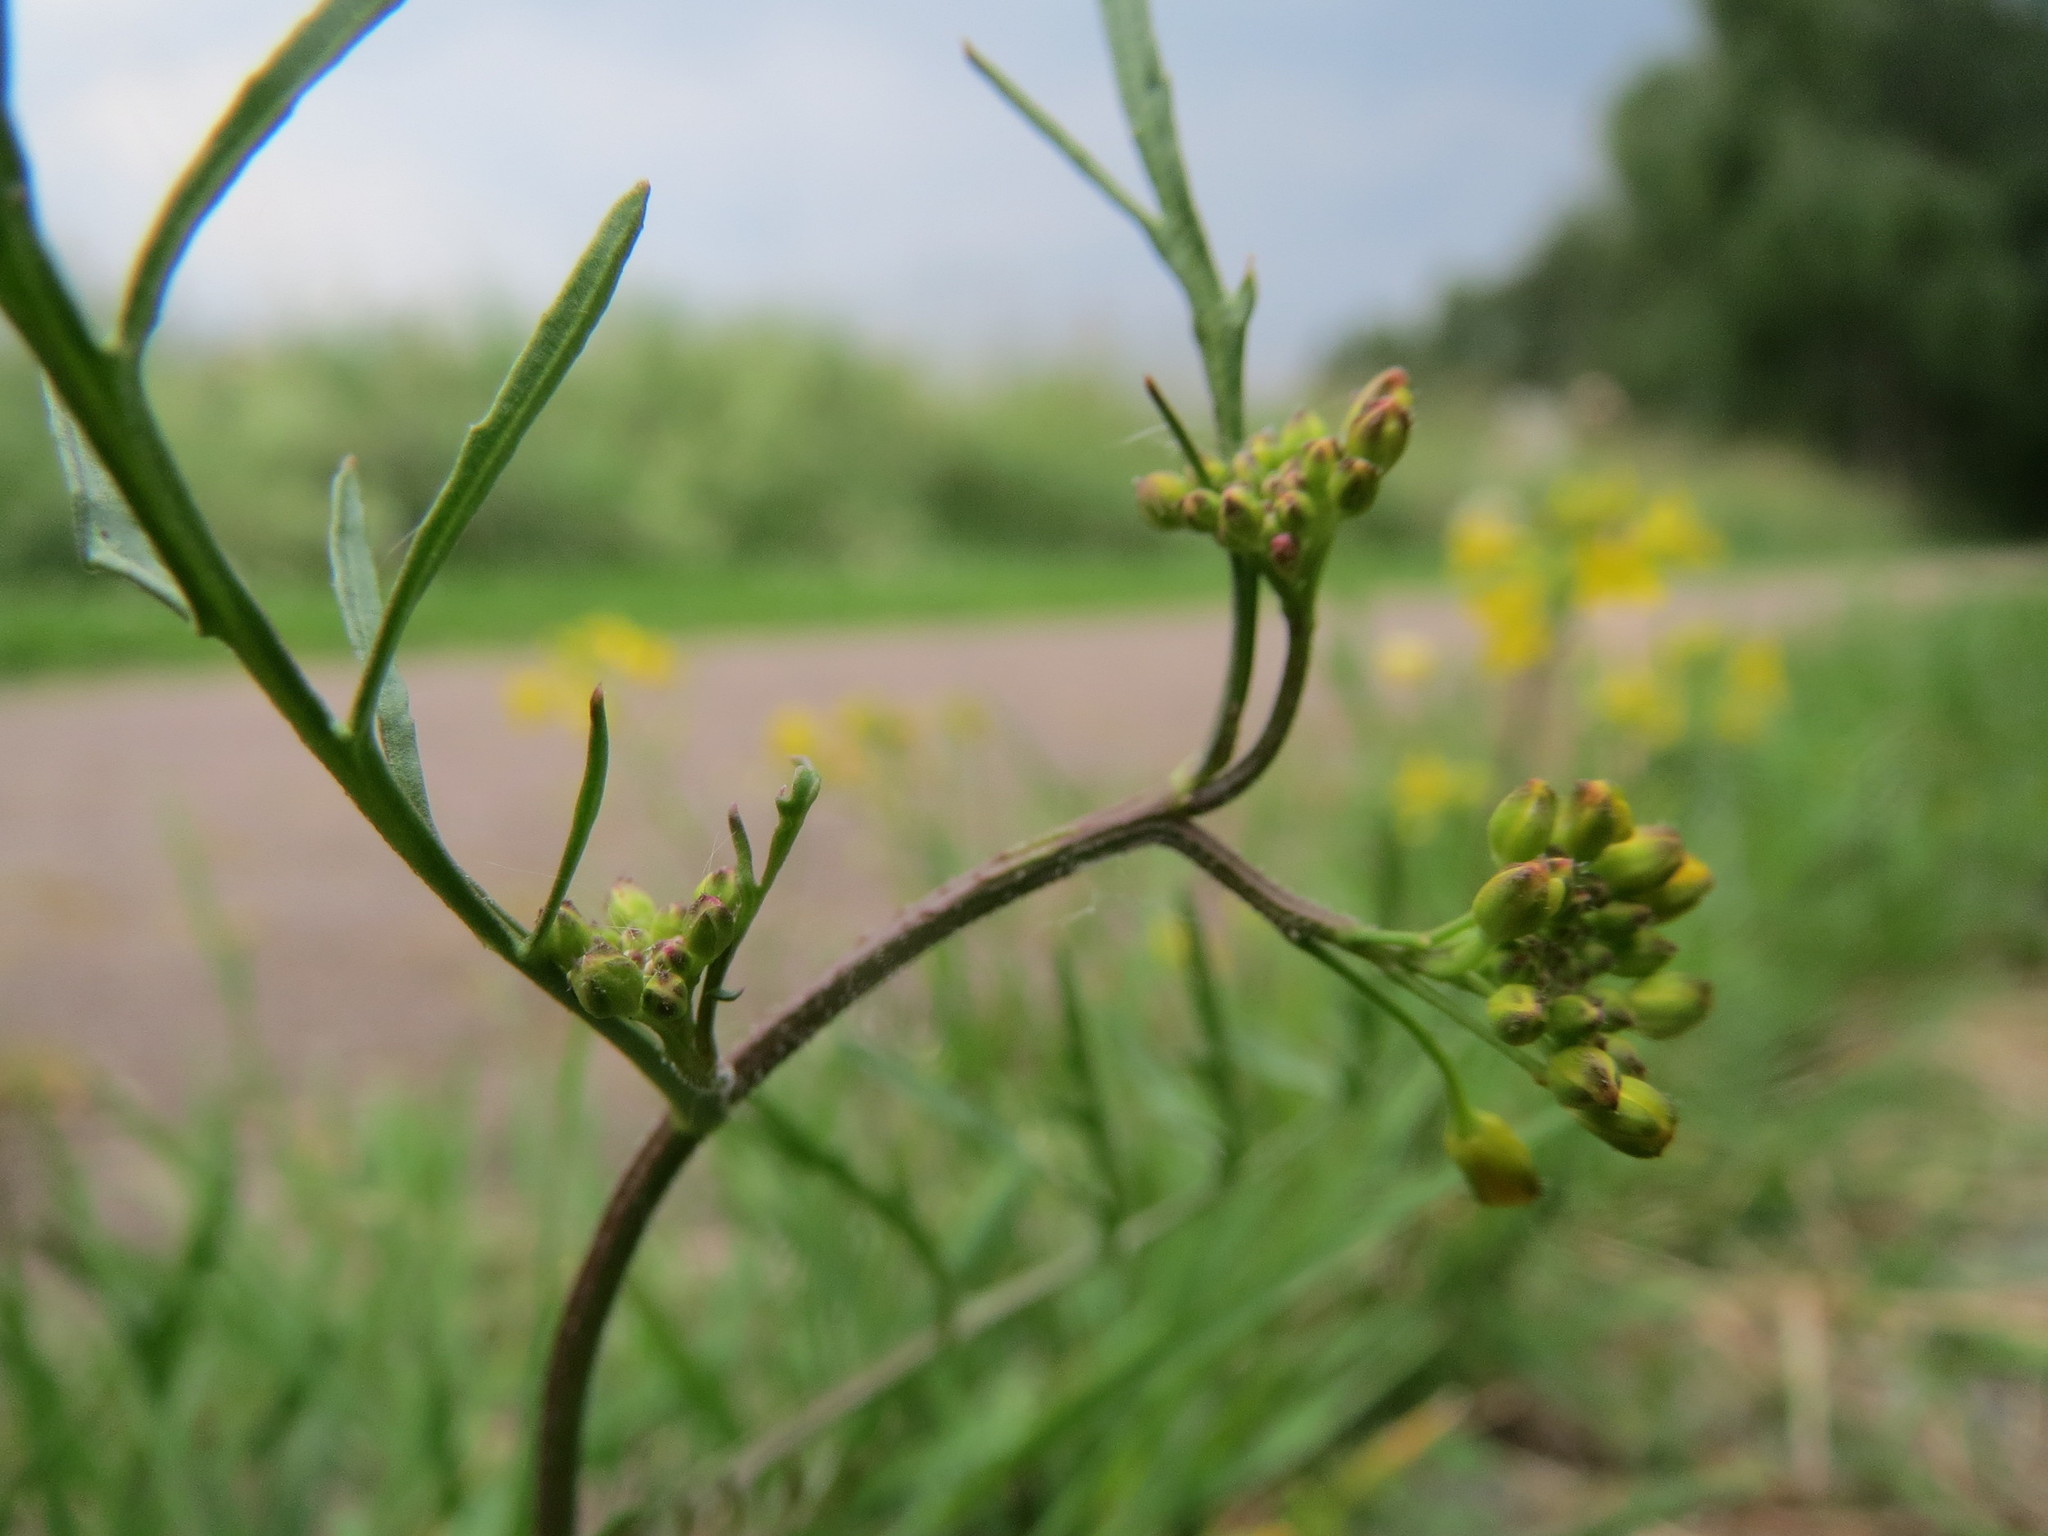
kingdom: Plantae
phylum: Tracheophyta
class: Magnoliopsida
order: Brassicales
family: Brassicaceae
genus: Rorippa
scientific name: Rorippa sylvestris
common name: Creeping yellowcress
